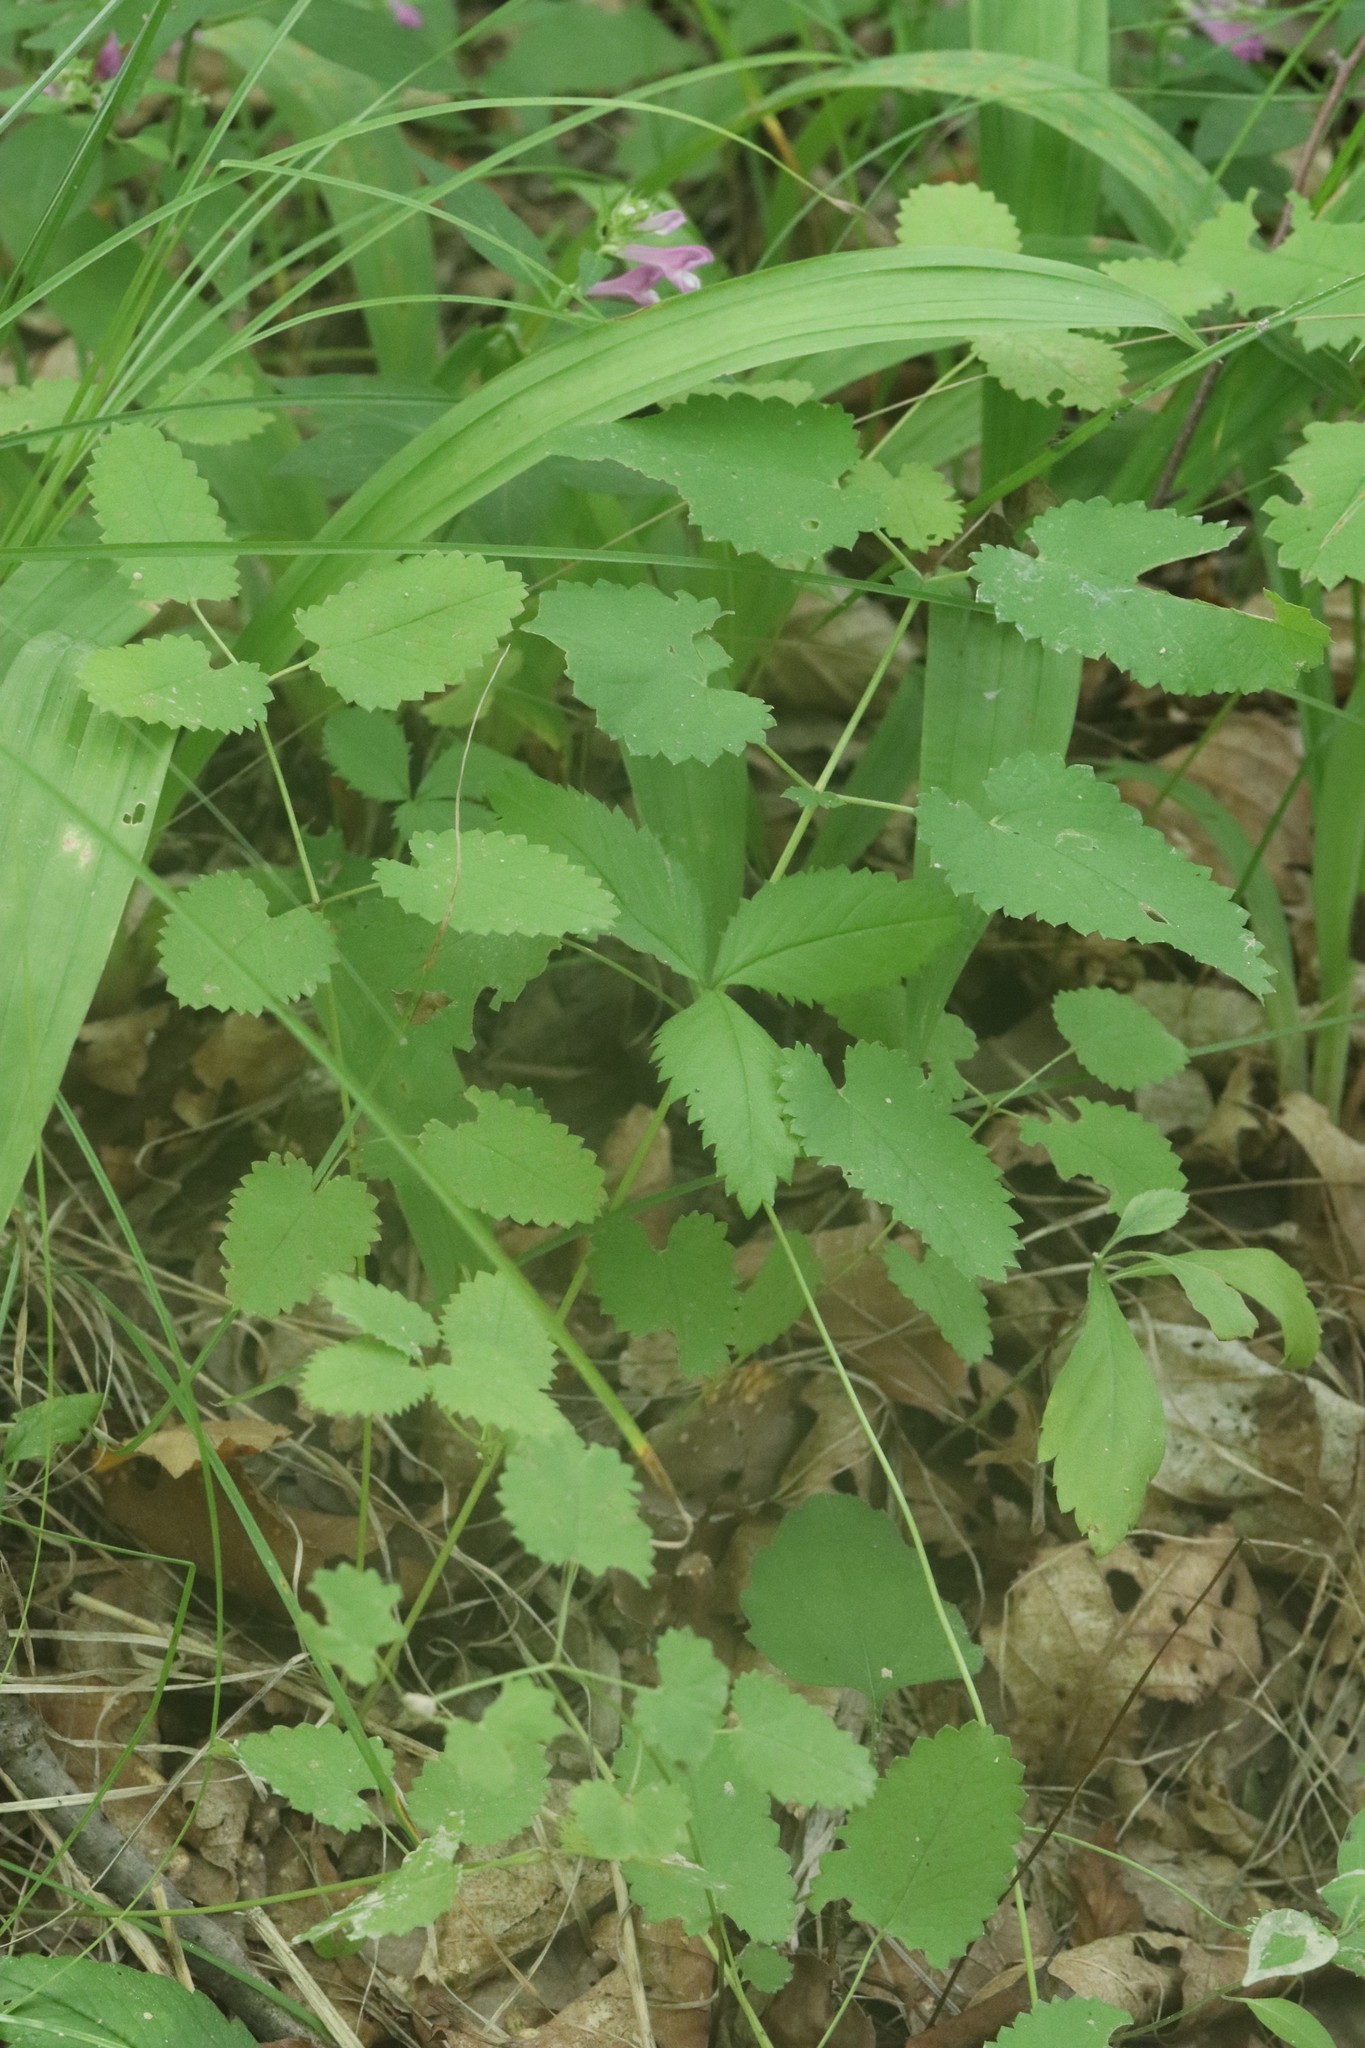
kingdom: Plantae
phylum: Tracheophyta
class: Magnoliopsida
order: Rosales
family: Rosaceae
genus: Sanguisorba
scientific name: Sanguisorba officinalis
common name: Great burnet
